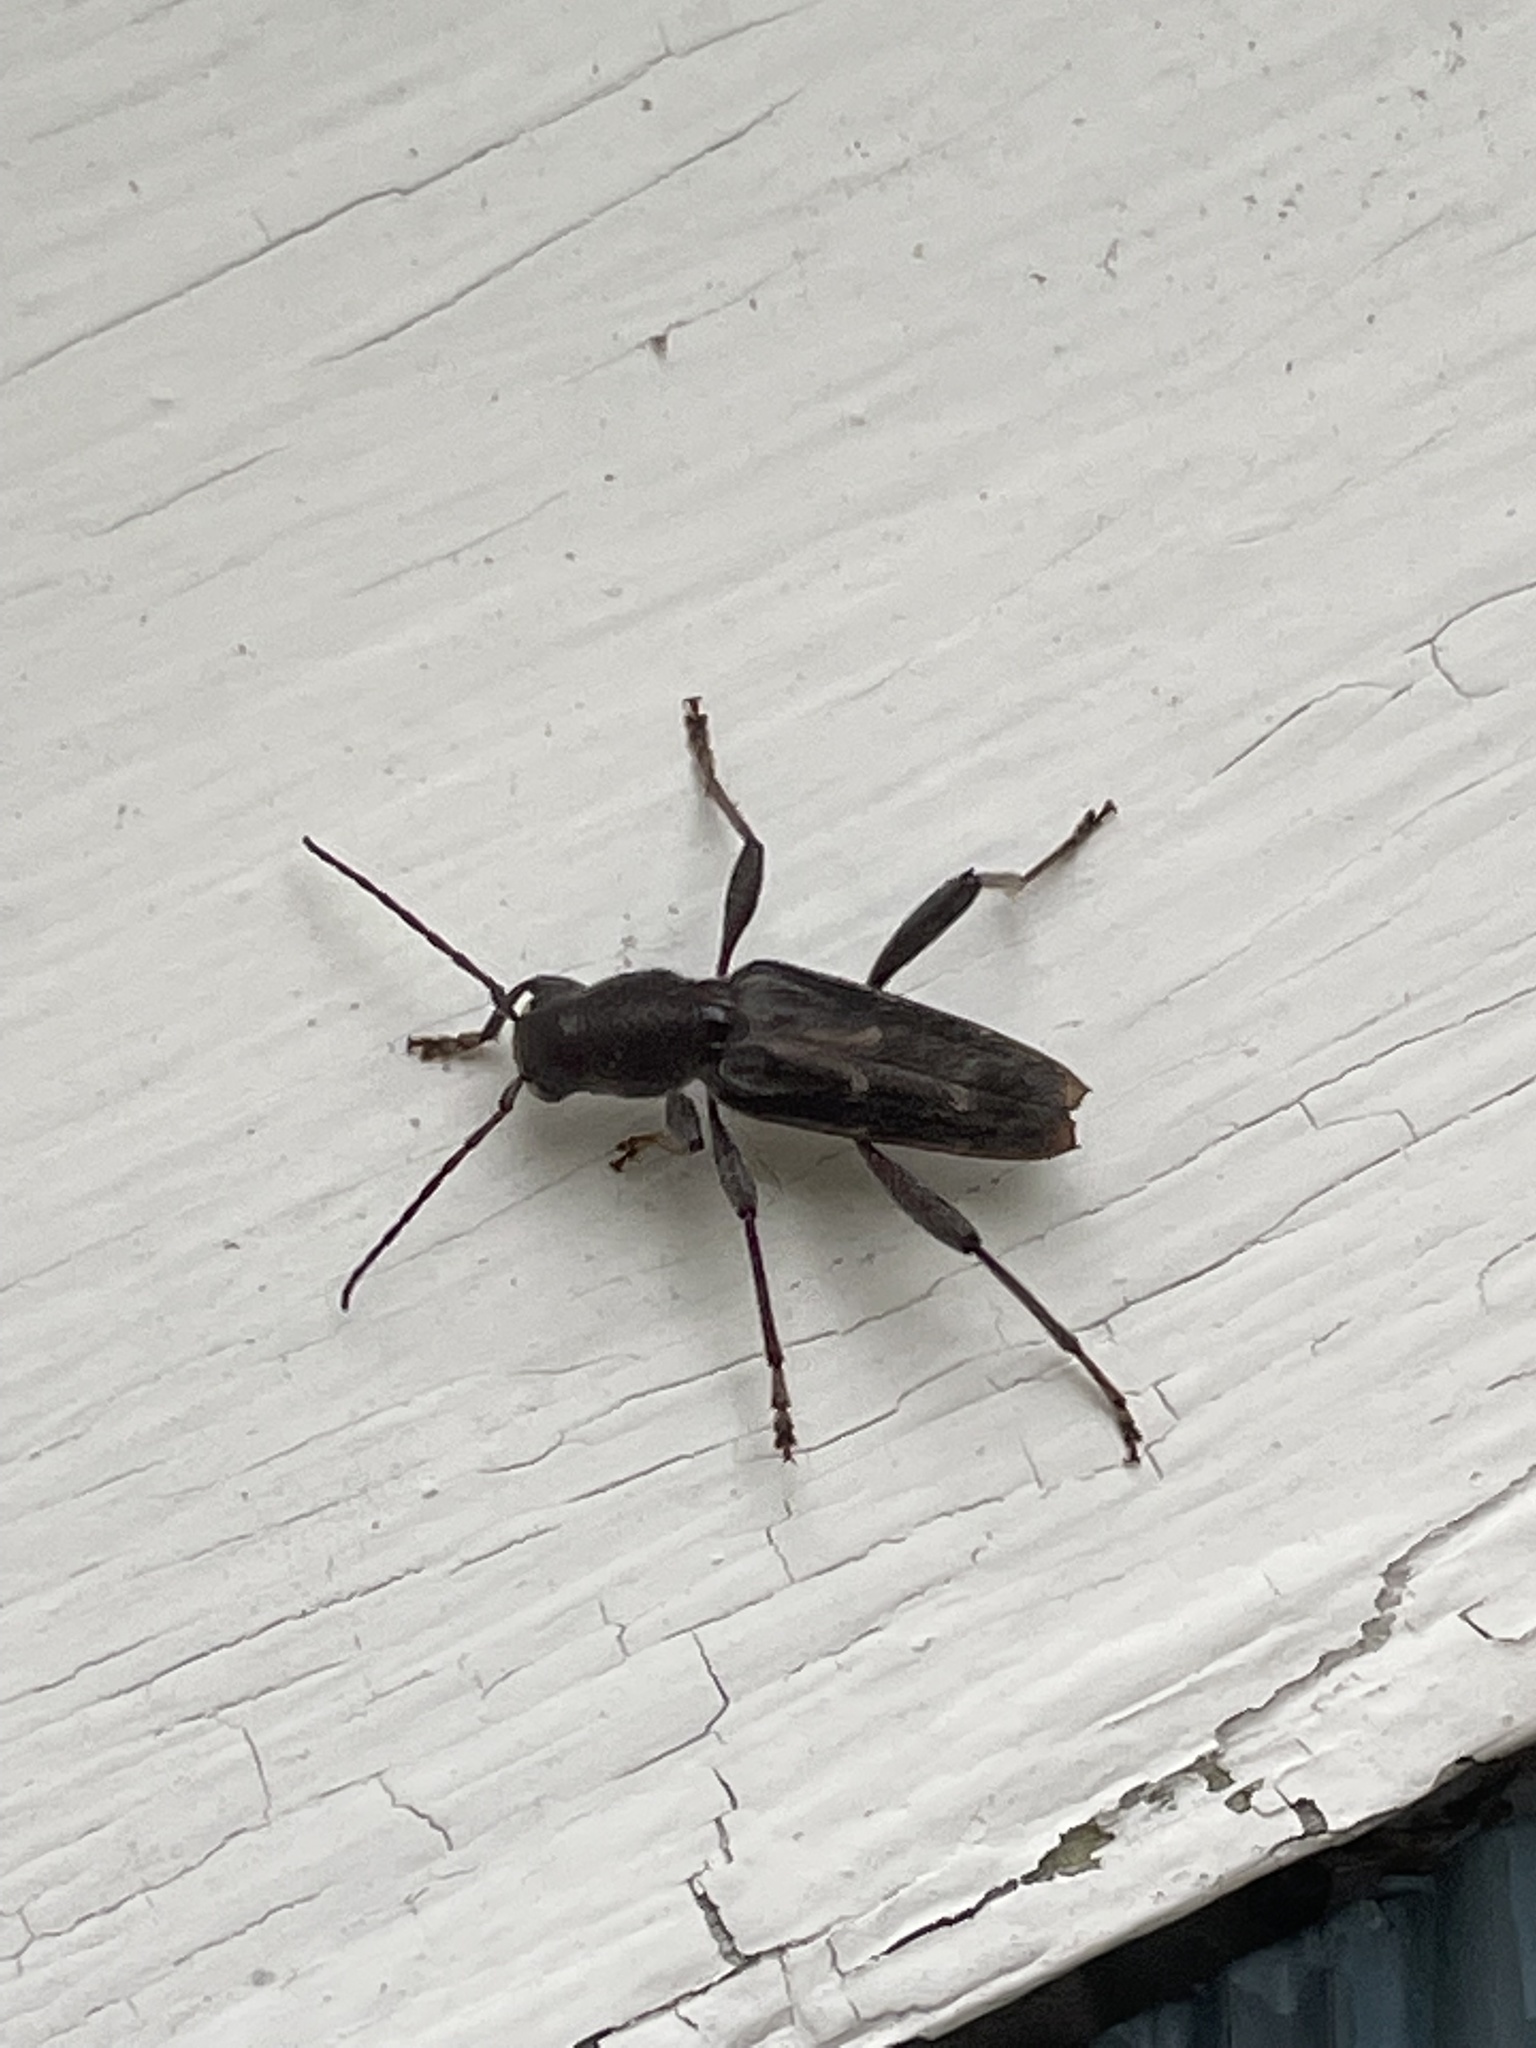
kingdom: Animalia
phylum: Arthropoda
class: Insecta
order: Coleoptera
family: Cerambycidae
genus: Xylotrechus
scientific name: Xylotrechus sagittatus
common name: Arrowhead borer
